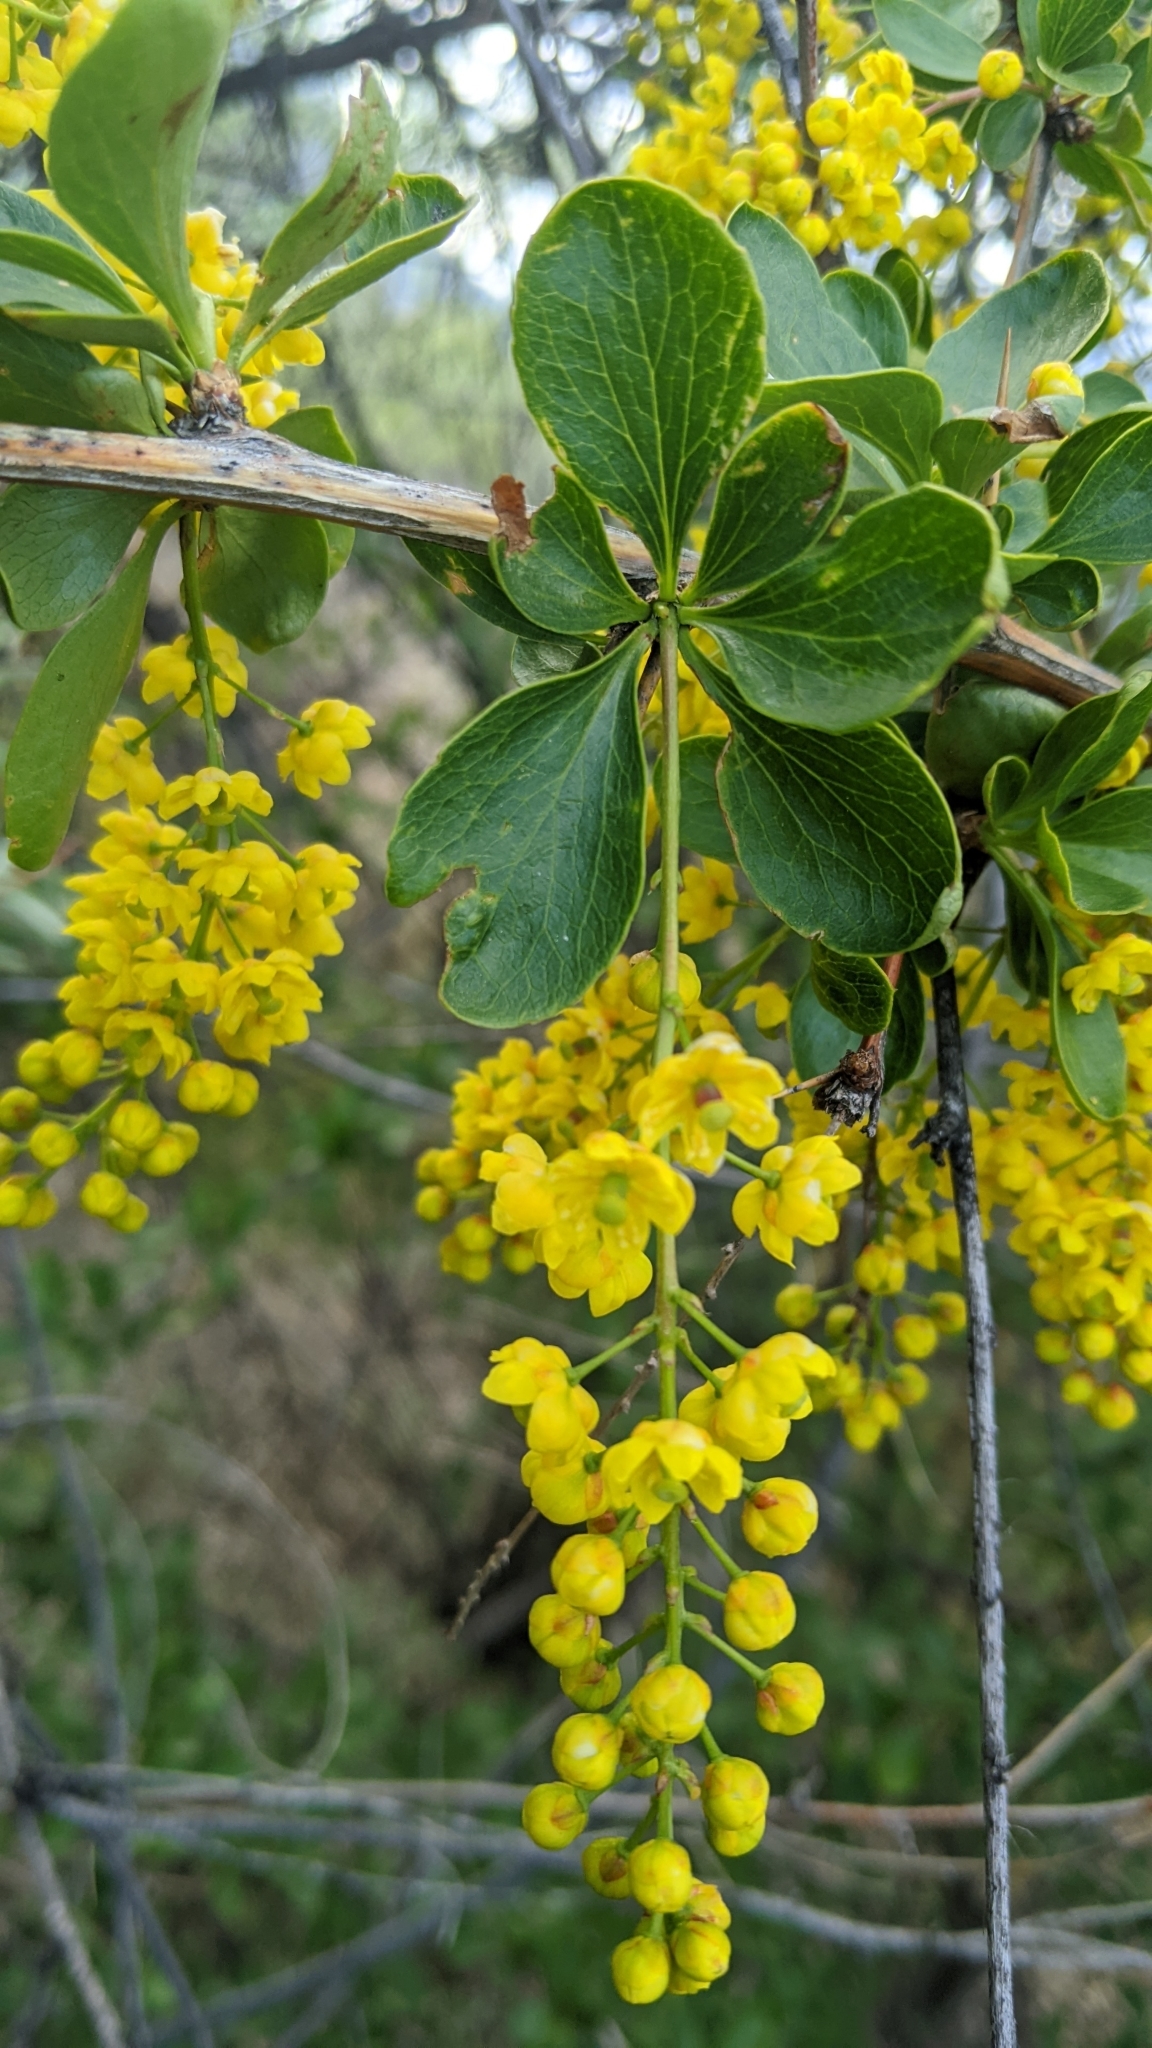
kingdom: Plantae
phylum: Tracheophyta
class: Magnoliopsida
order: Ranunculales
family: Berberidaceae
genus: Berberis
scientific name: Berberis vulgaris
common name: Barberry
